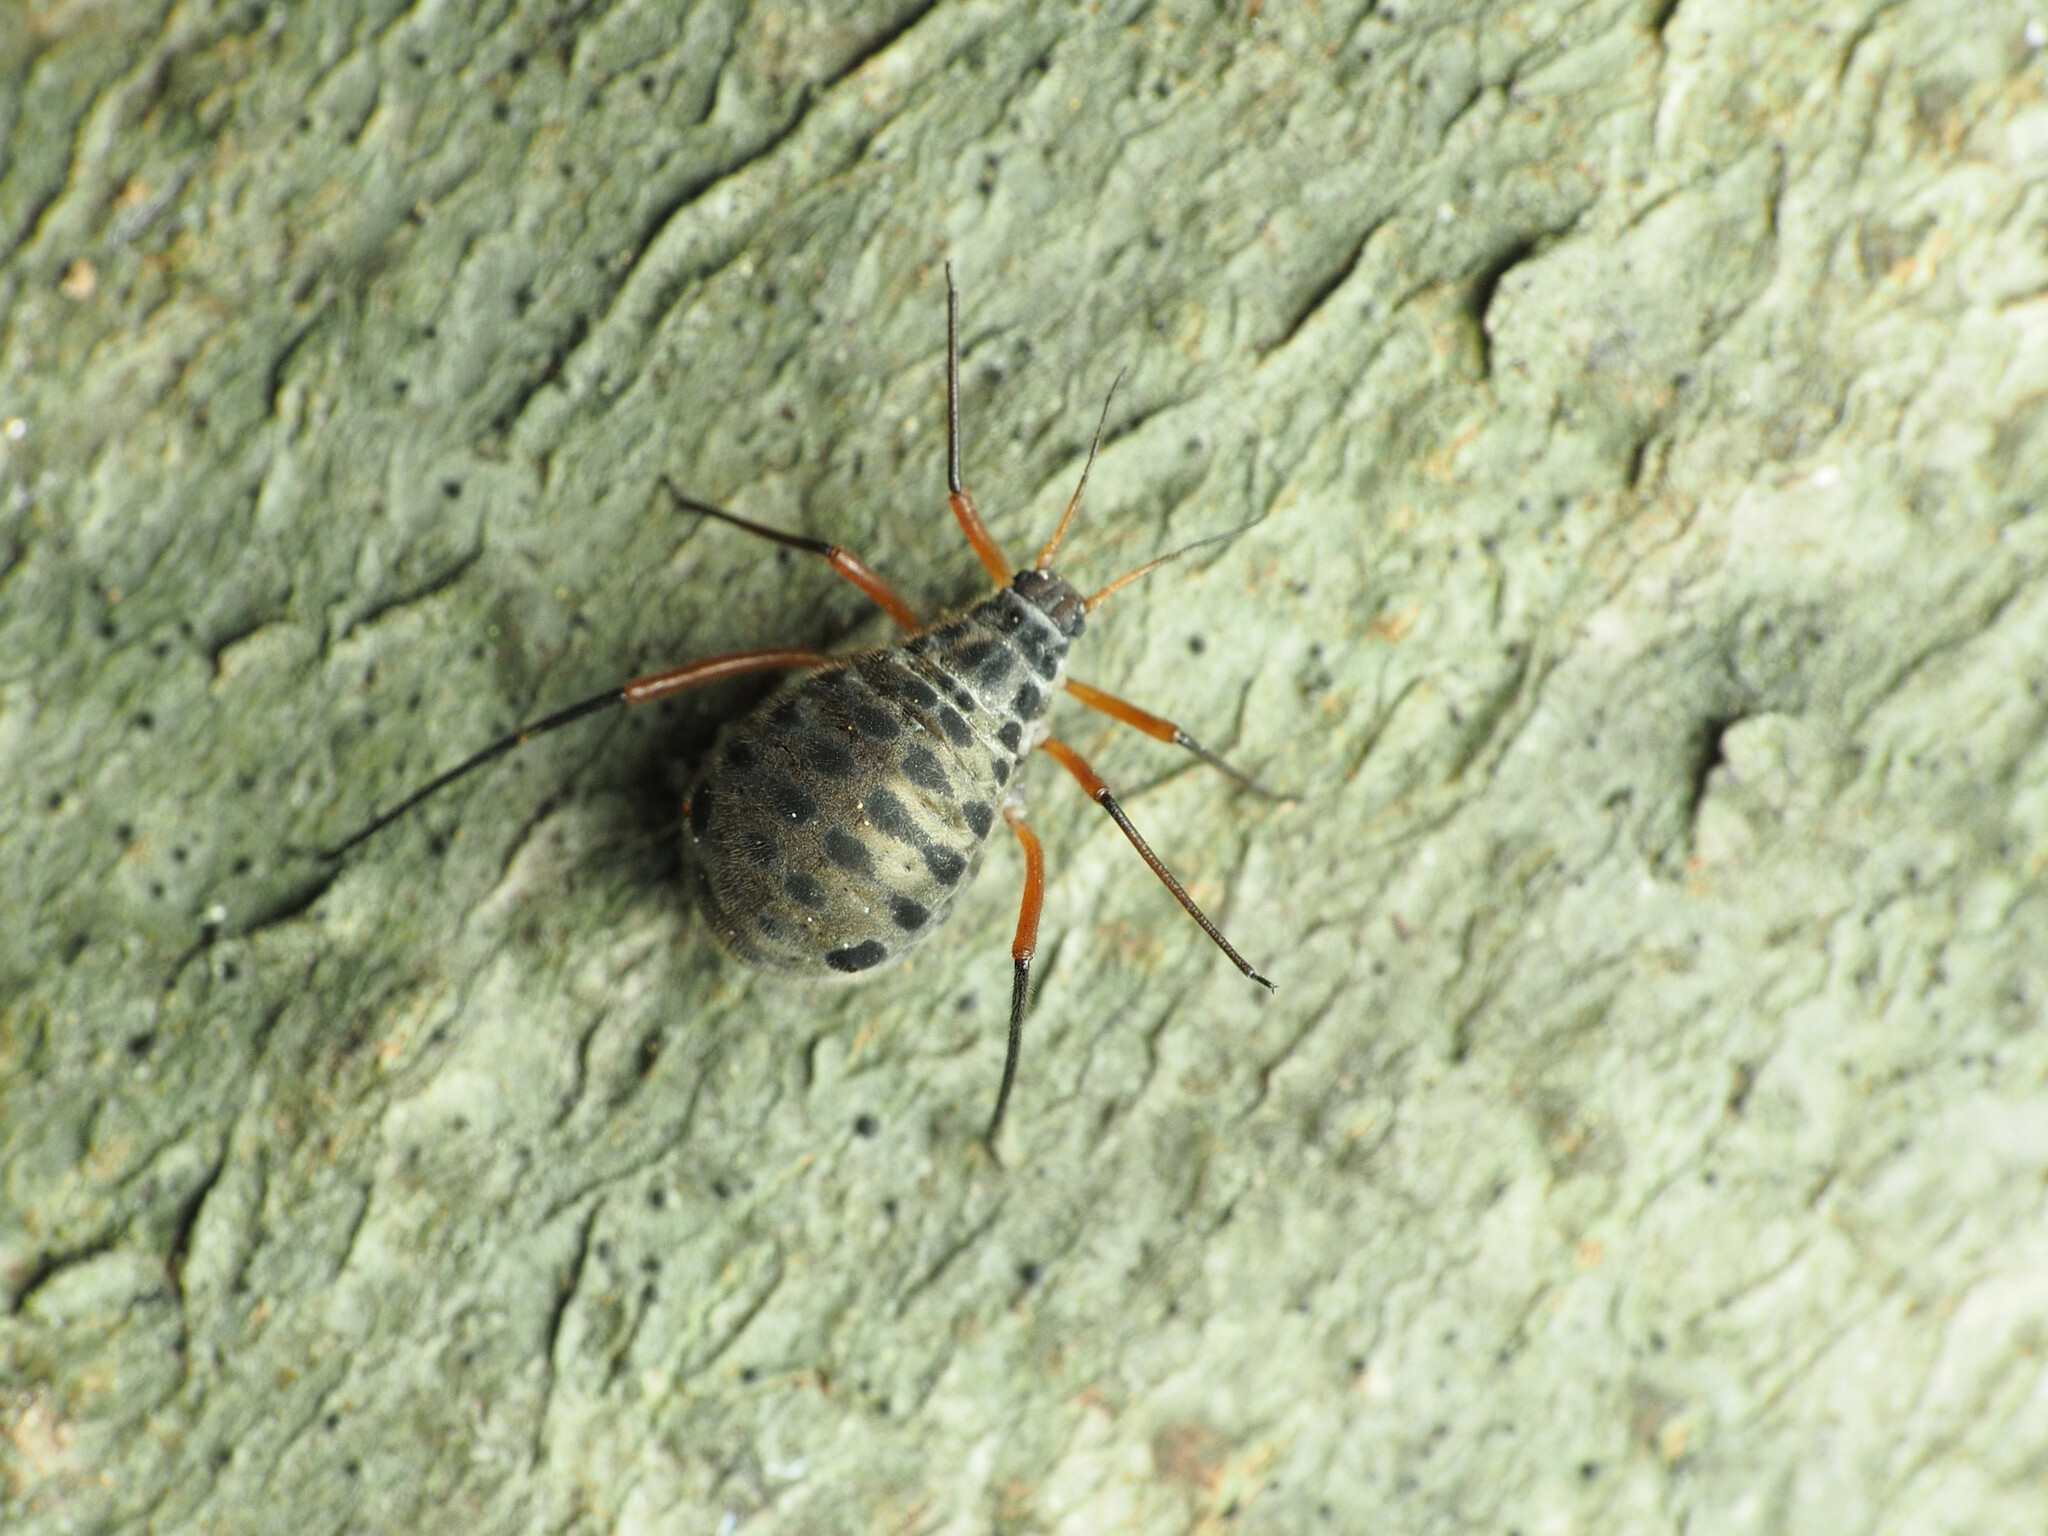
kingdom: Animalia
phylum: Arthropoda
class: Insecta
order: Hemiptera
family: Aphididae
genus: Longistigma
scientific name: Longistigma caryae
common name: Giant bark aphid
